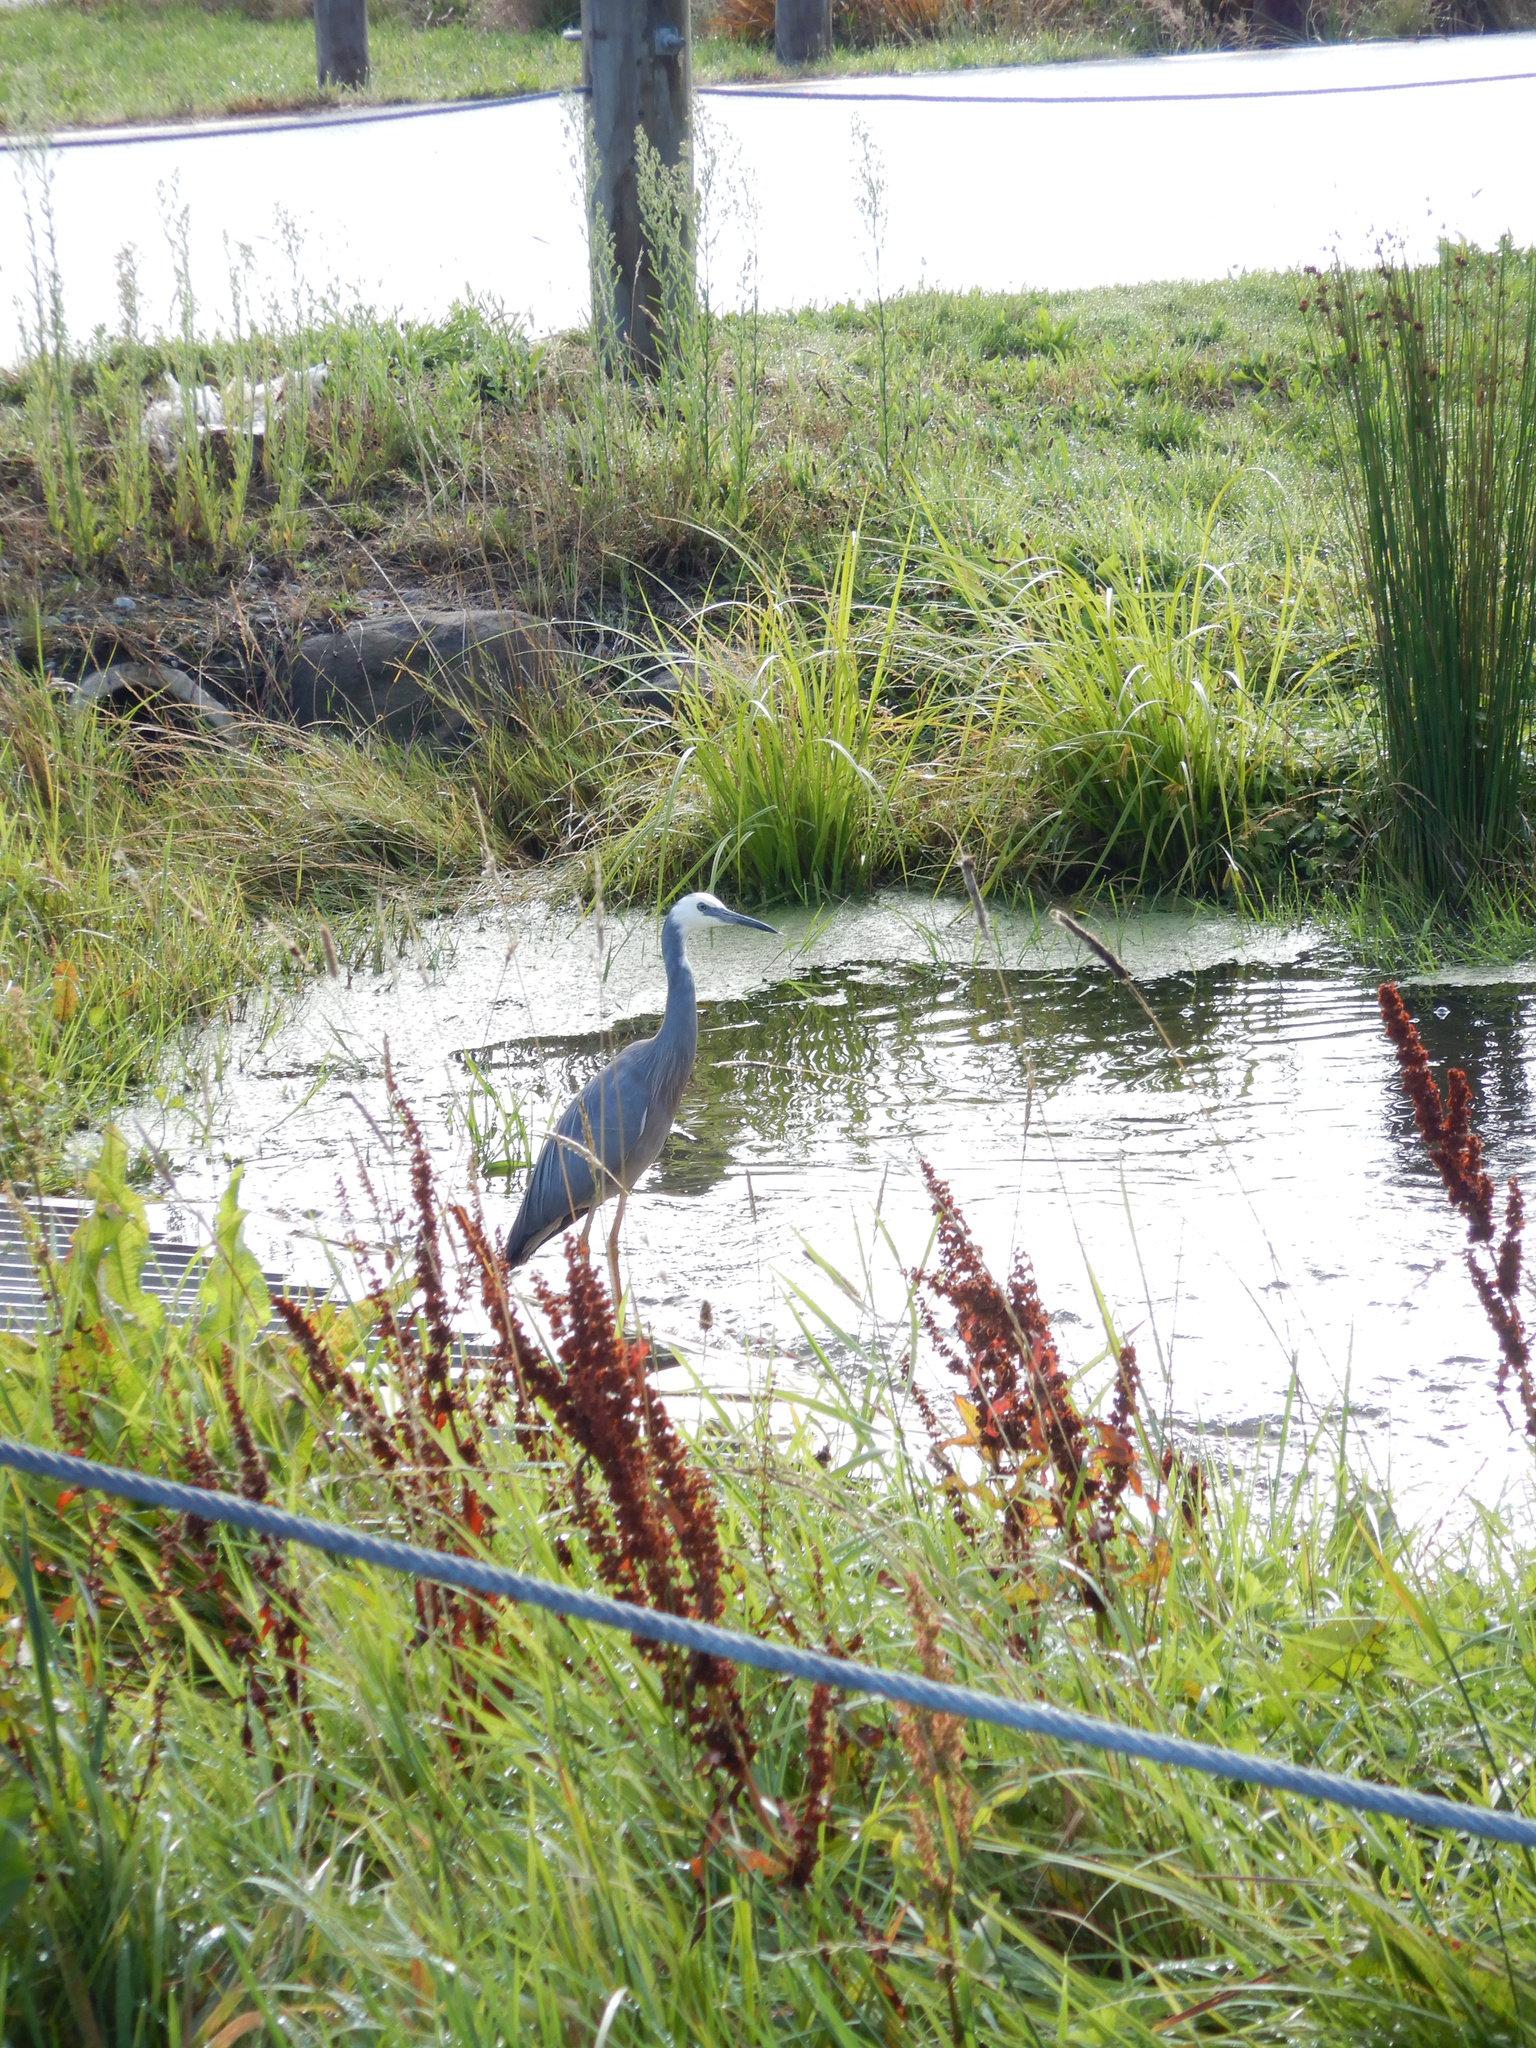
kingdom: Animalia
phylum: Chordata
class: Aves
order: Pelecaniformes
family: Ardeidae
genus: Egretta
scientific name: Egretta novaehollandiae
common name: White-faced heron
